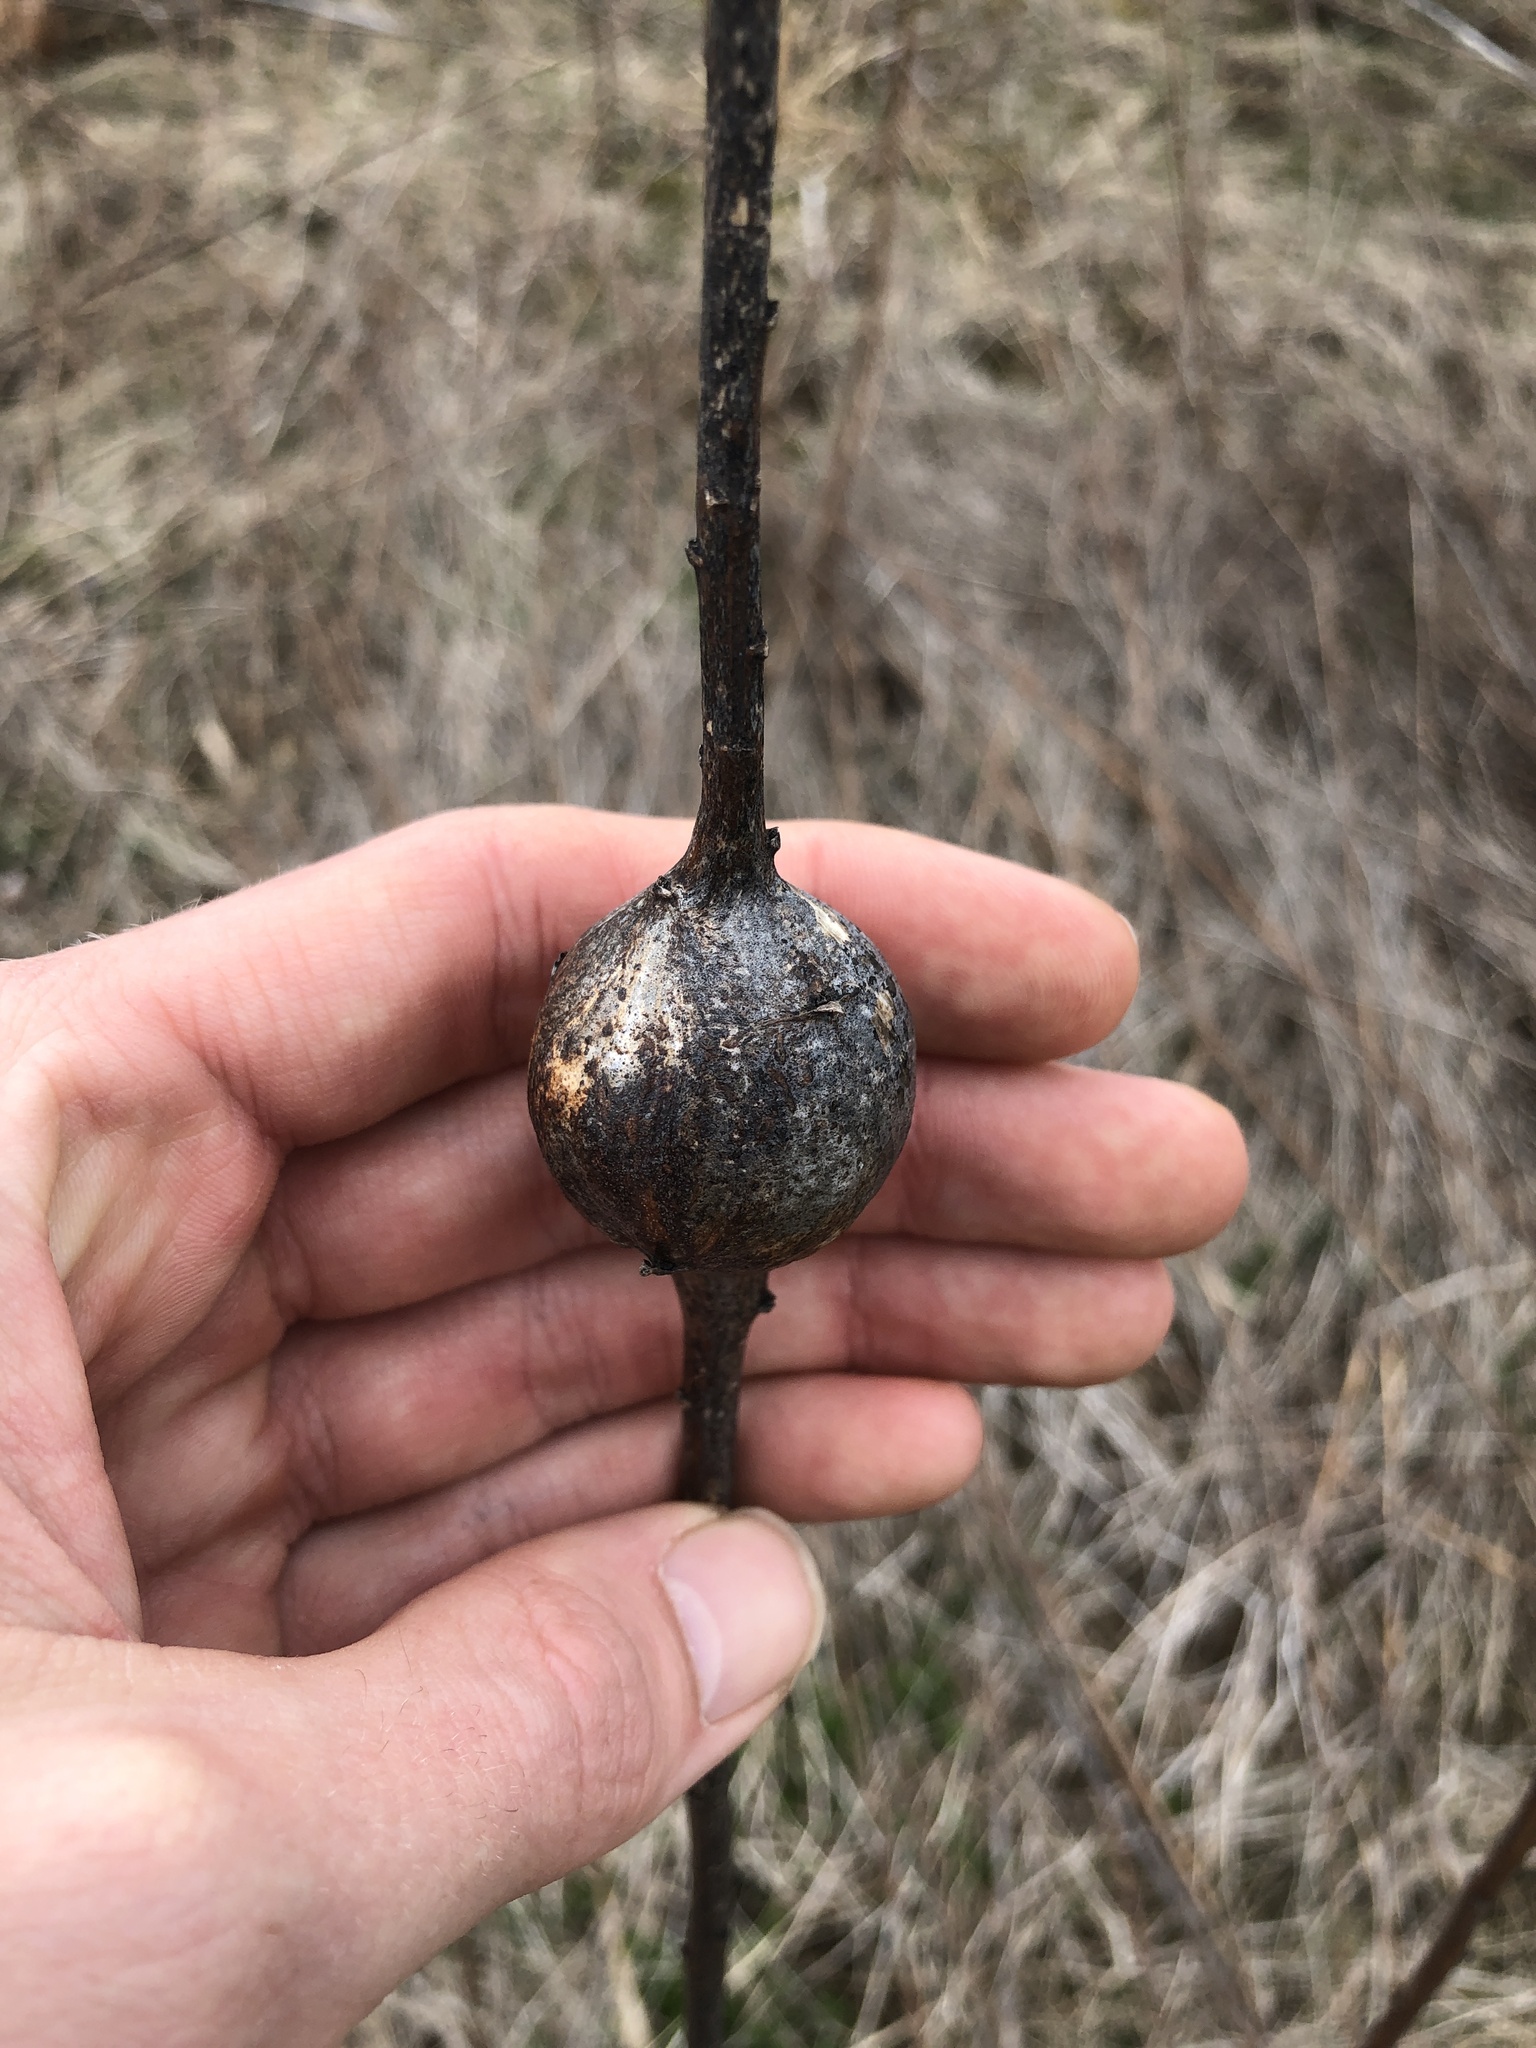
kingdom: Animalia
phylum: Arthropoda
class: Insecta
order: Diptera
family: Tephritidae
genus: Eurosta
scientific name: Eurosta solidaginis
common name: Goldenrod gall fly
